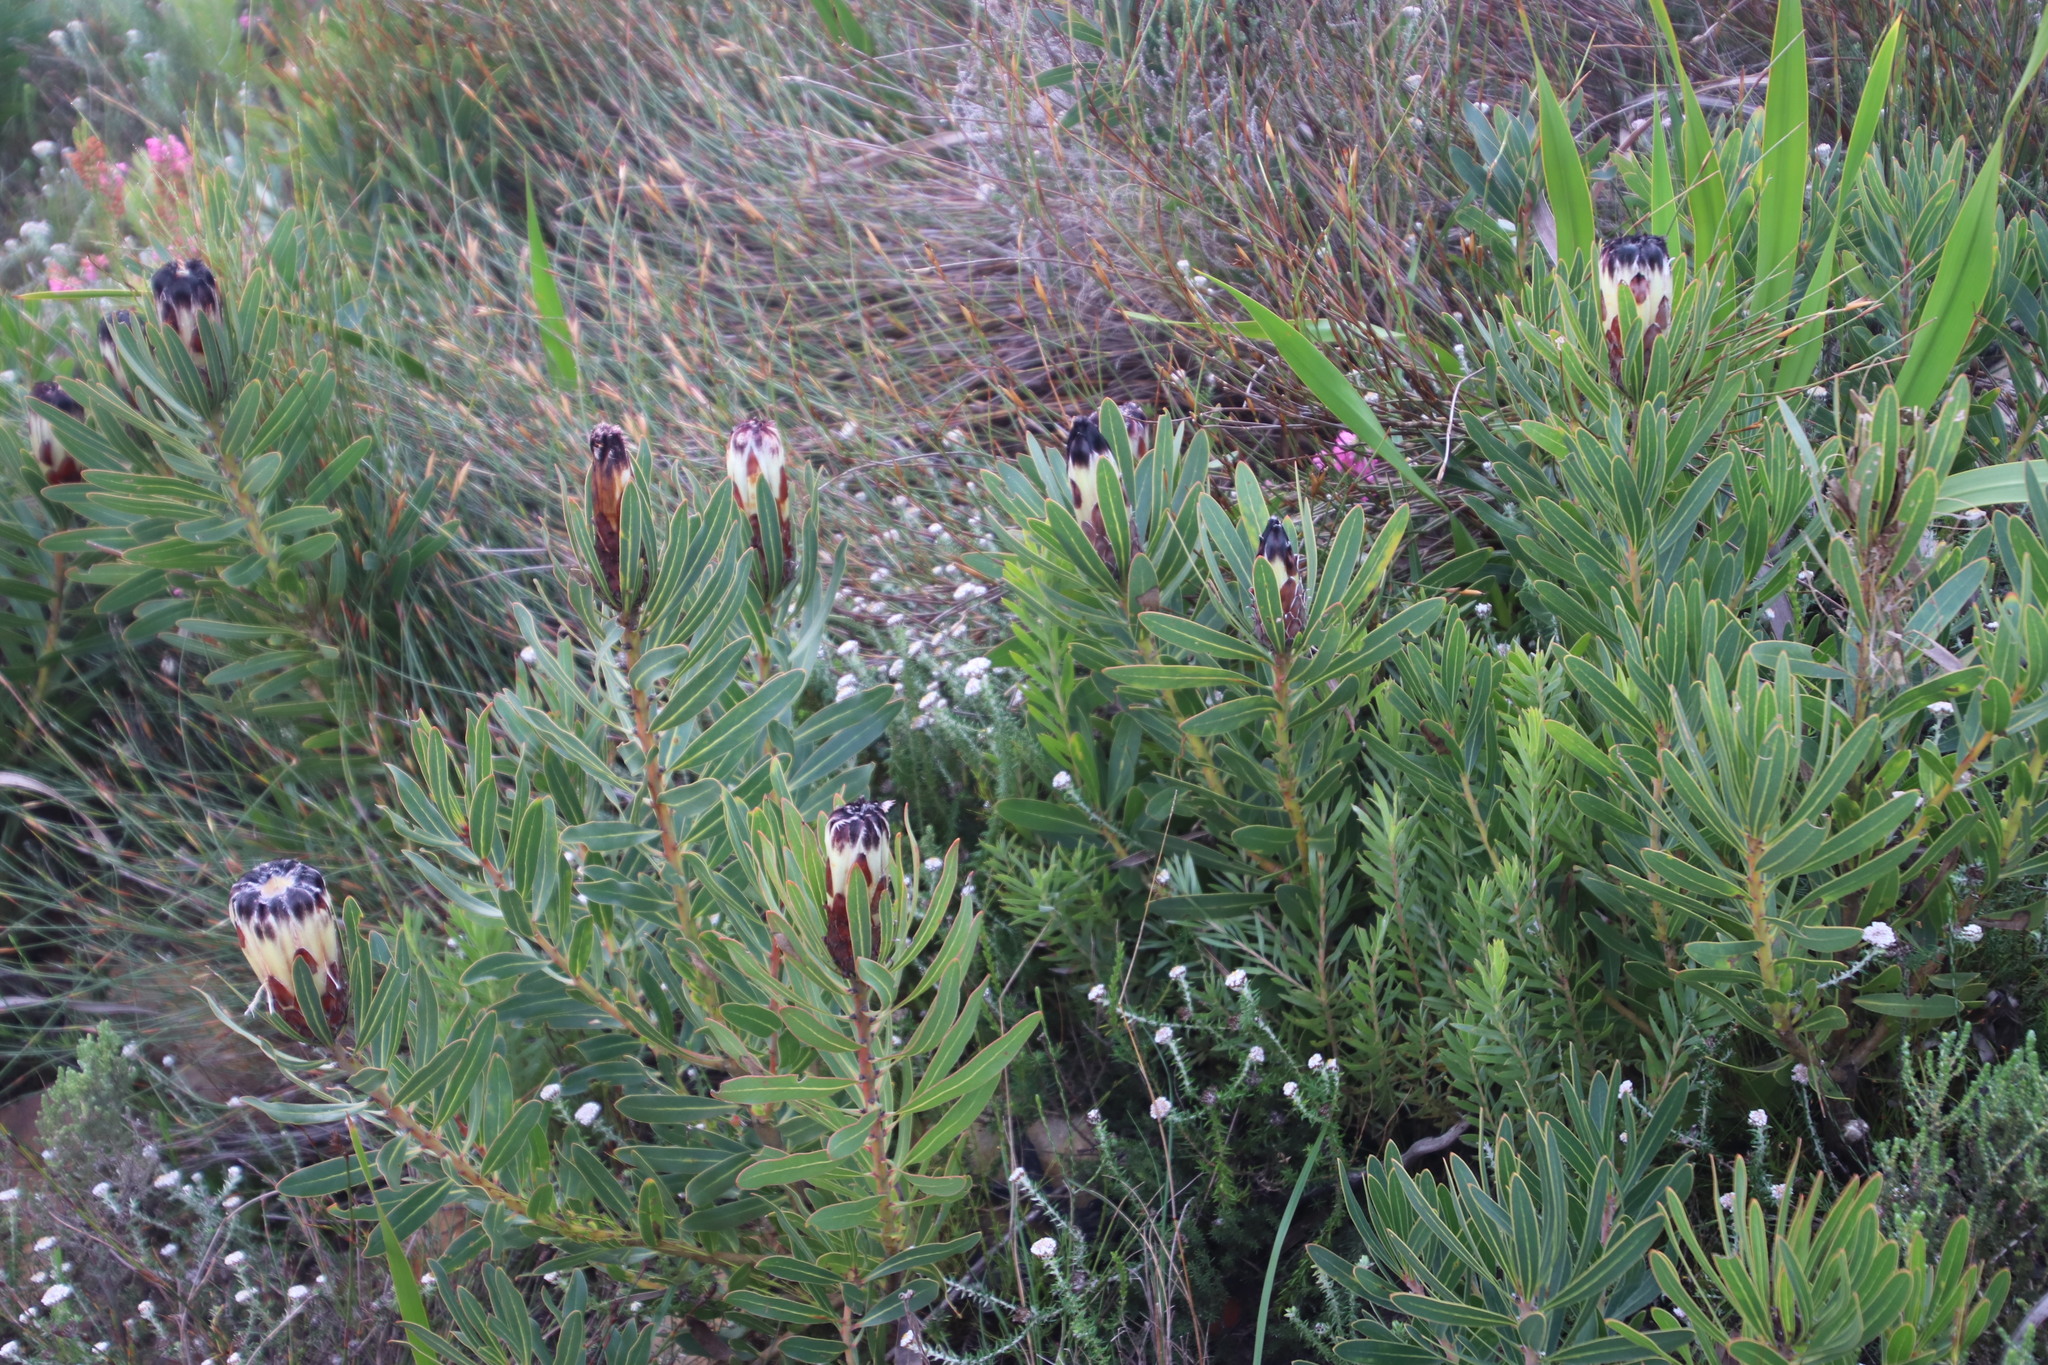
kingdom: Plantae
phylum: Tracheophyta
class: Magnoliopsida
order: Proteales
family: Proteaceae
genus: Protea
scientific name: Protea lepidocarpodendron
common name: Black-bearded protea
